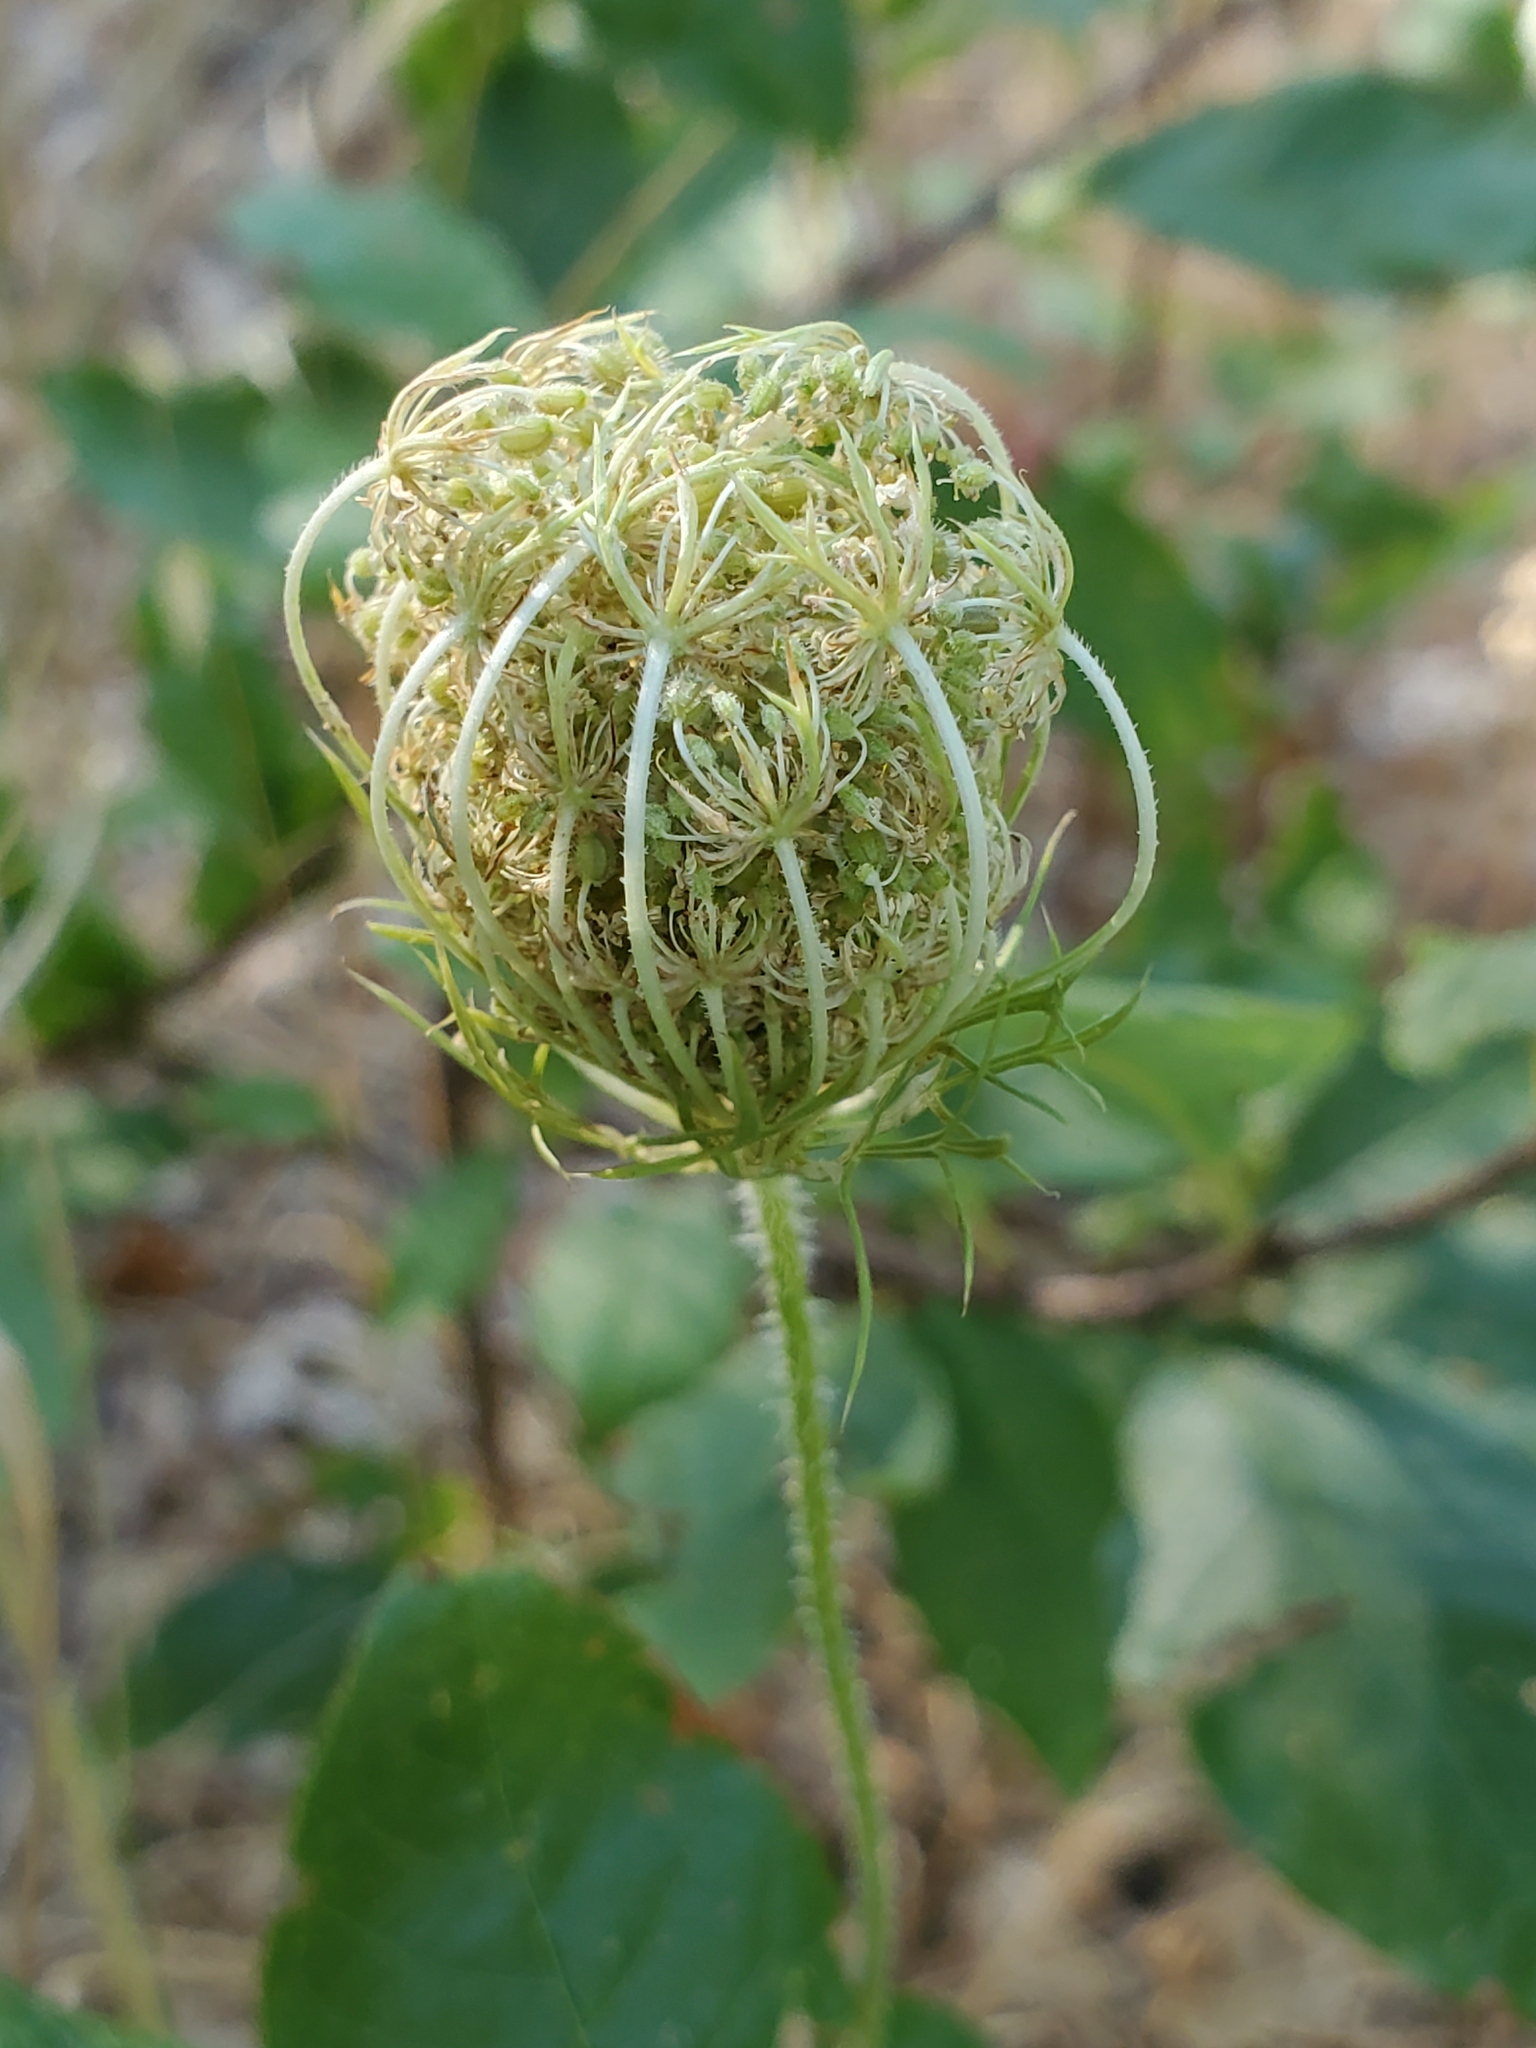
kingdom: Plantae
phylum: Tracheophyta
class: Magnoliopsida
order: Apiales
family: Apiaceae
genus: Daucus
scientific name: Daucus carota
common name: Wild carrot
